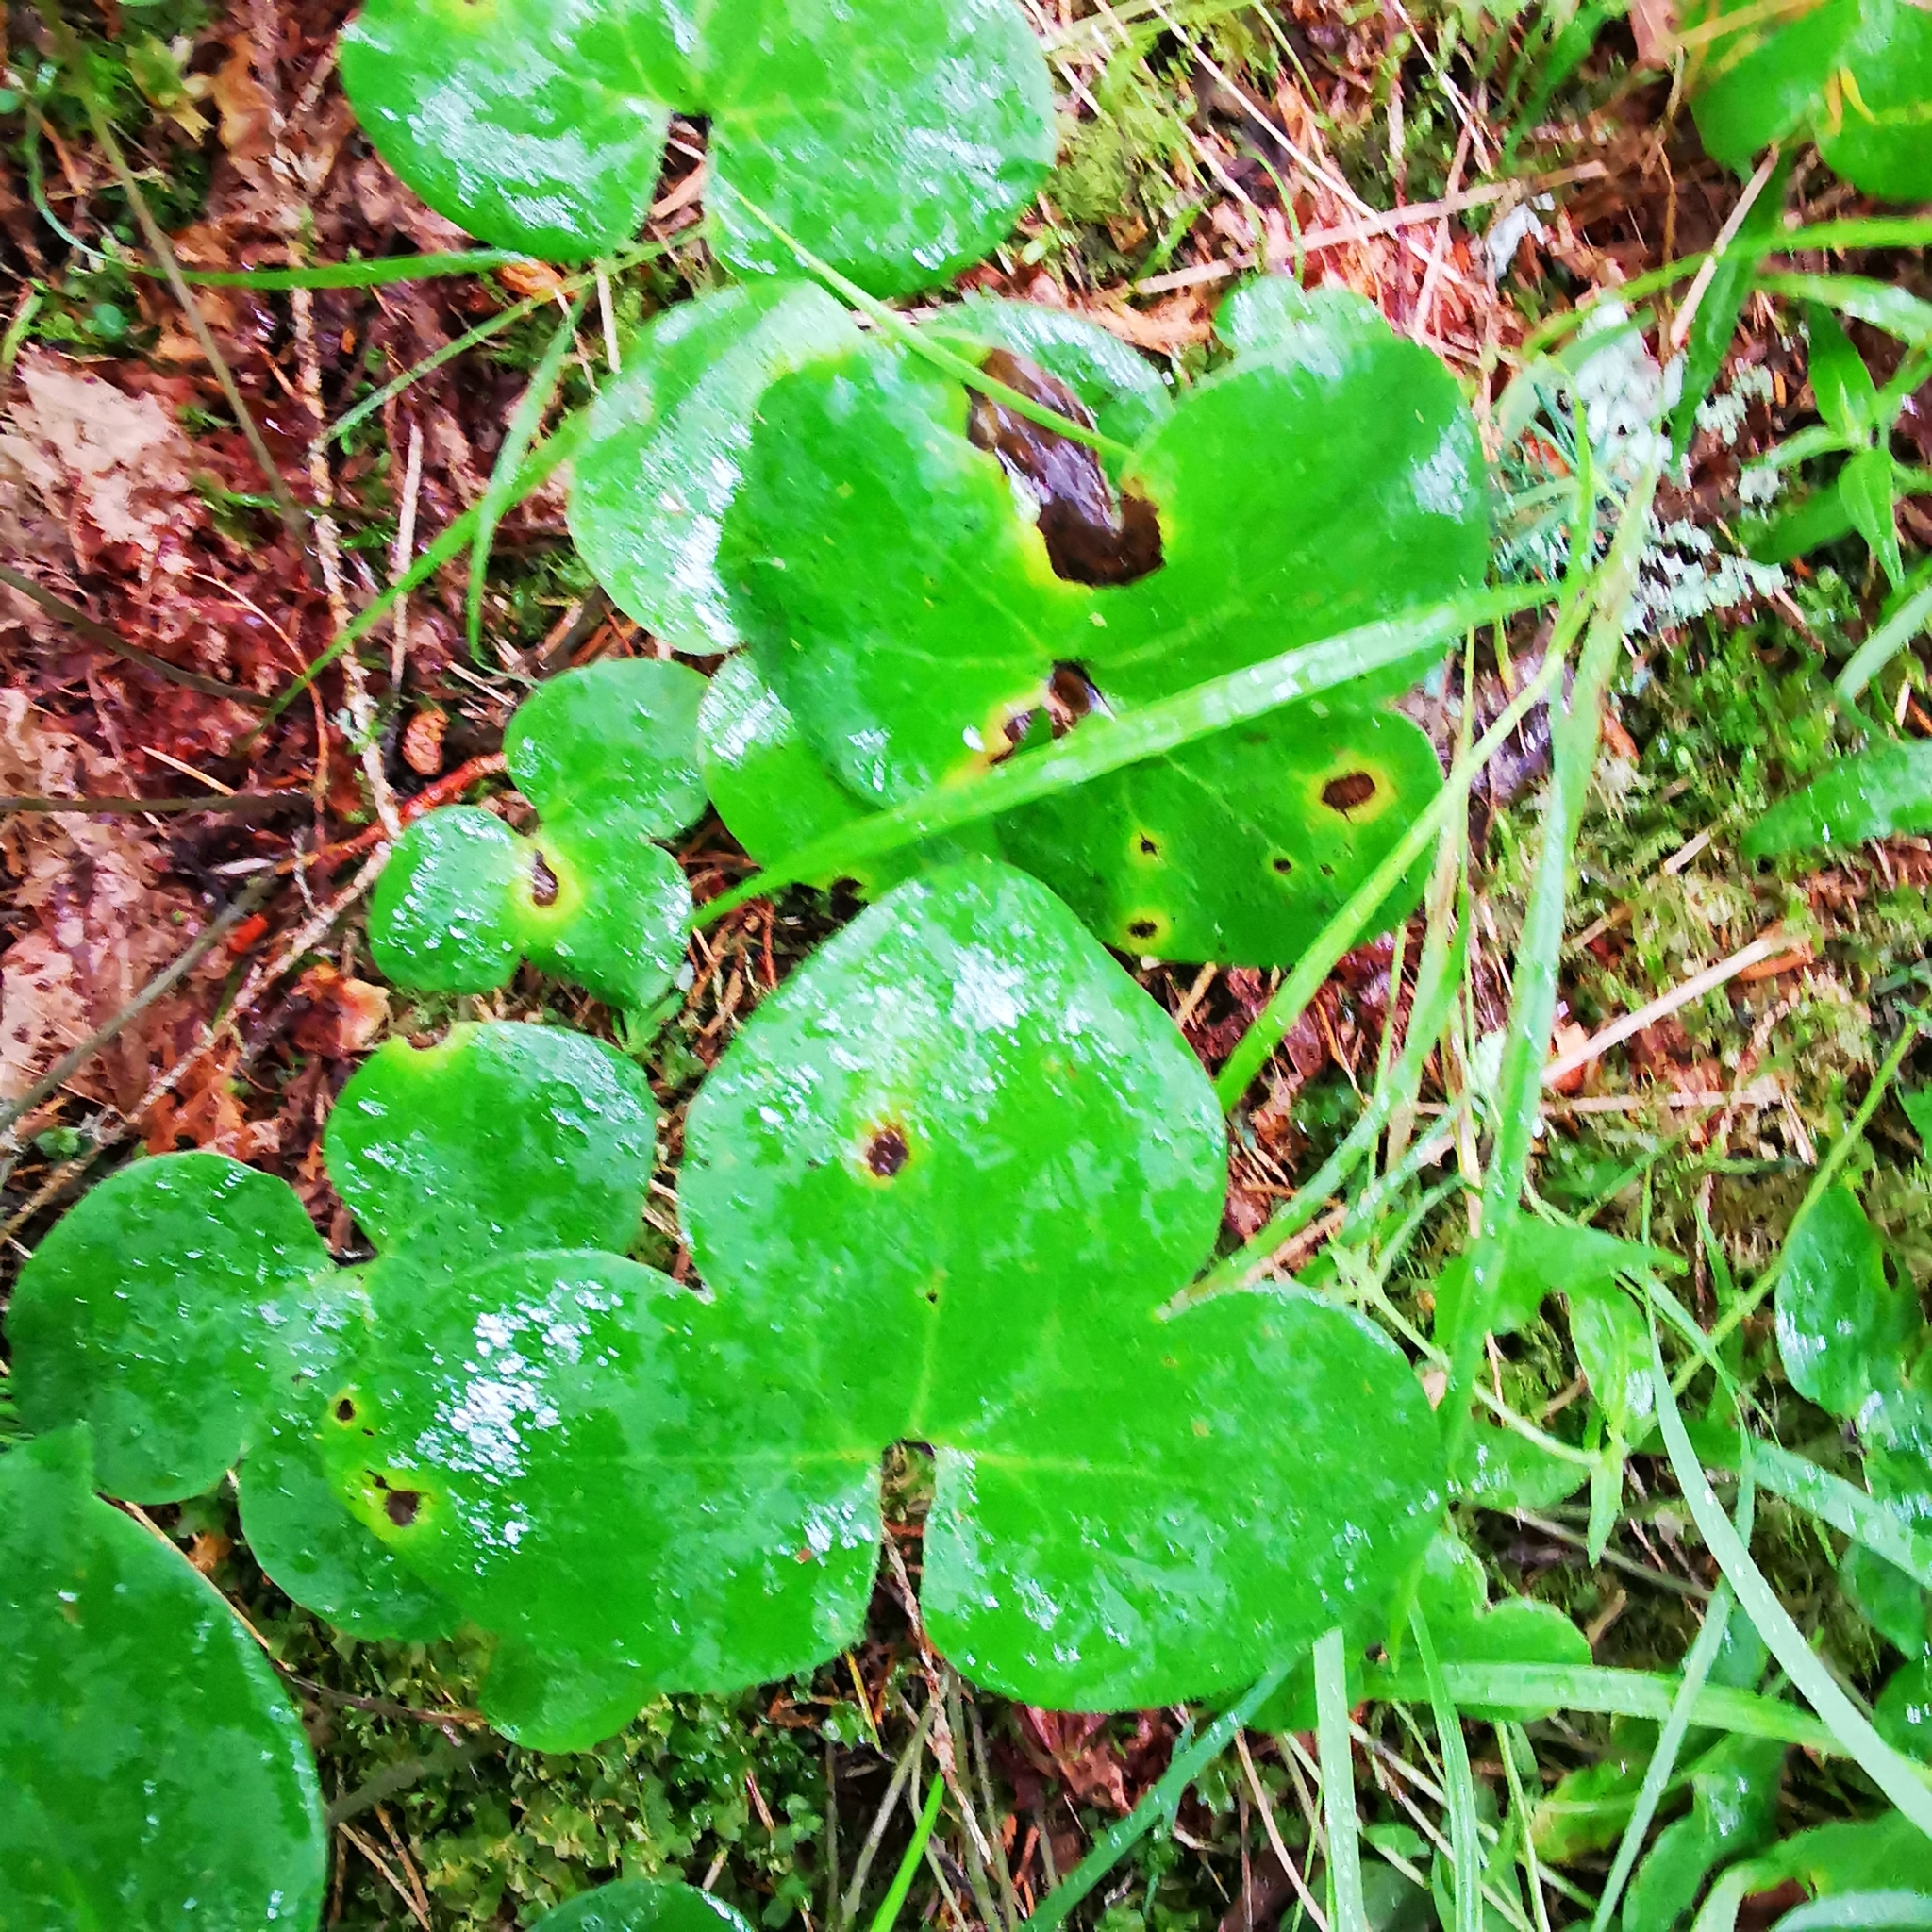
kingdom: Plantae
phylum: Tracheophyta
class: Magnoliopsida
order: Ranunculales
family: Ranunculaceae
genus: Hepatica
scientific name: Hepatica nobilis
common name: Liverleaf
